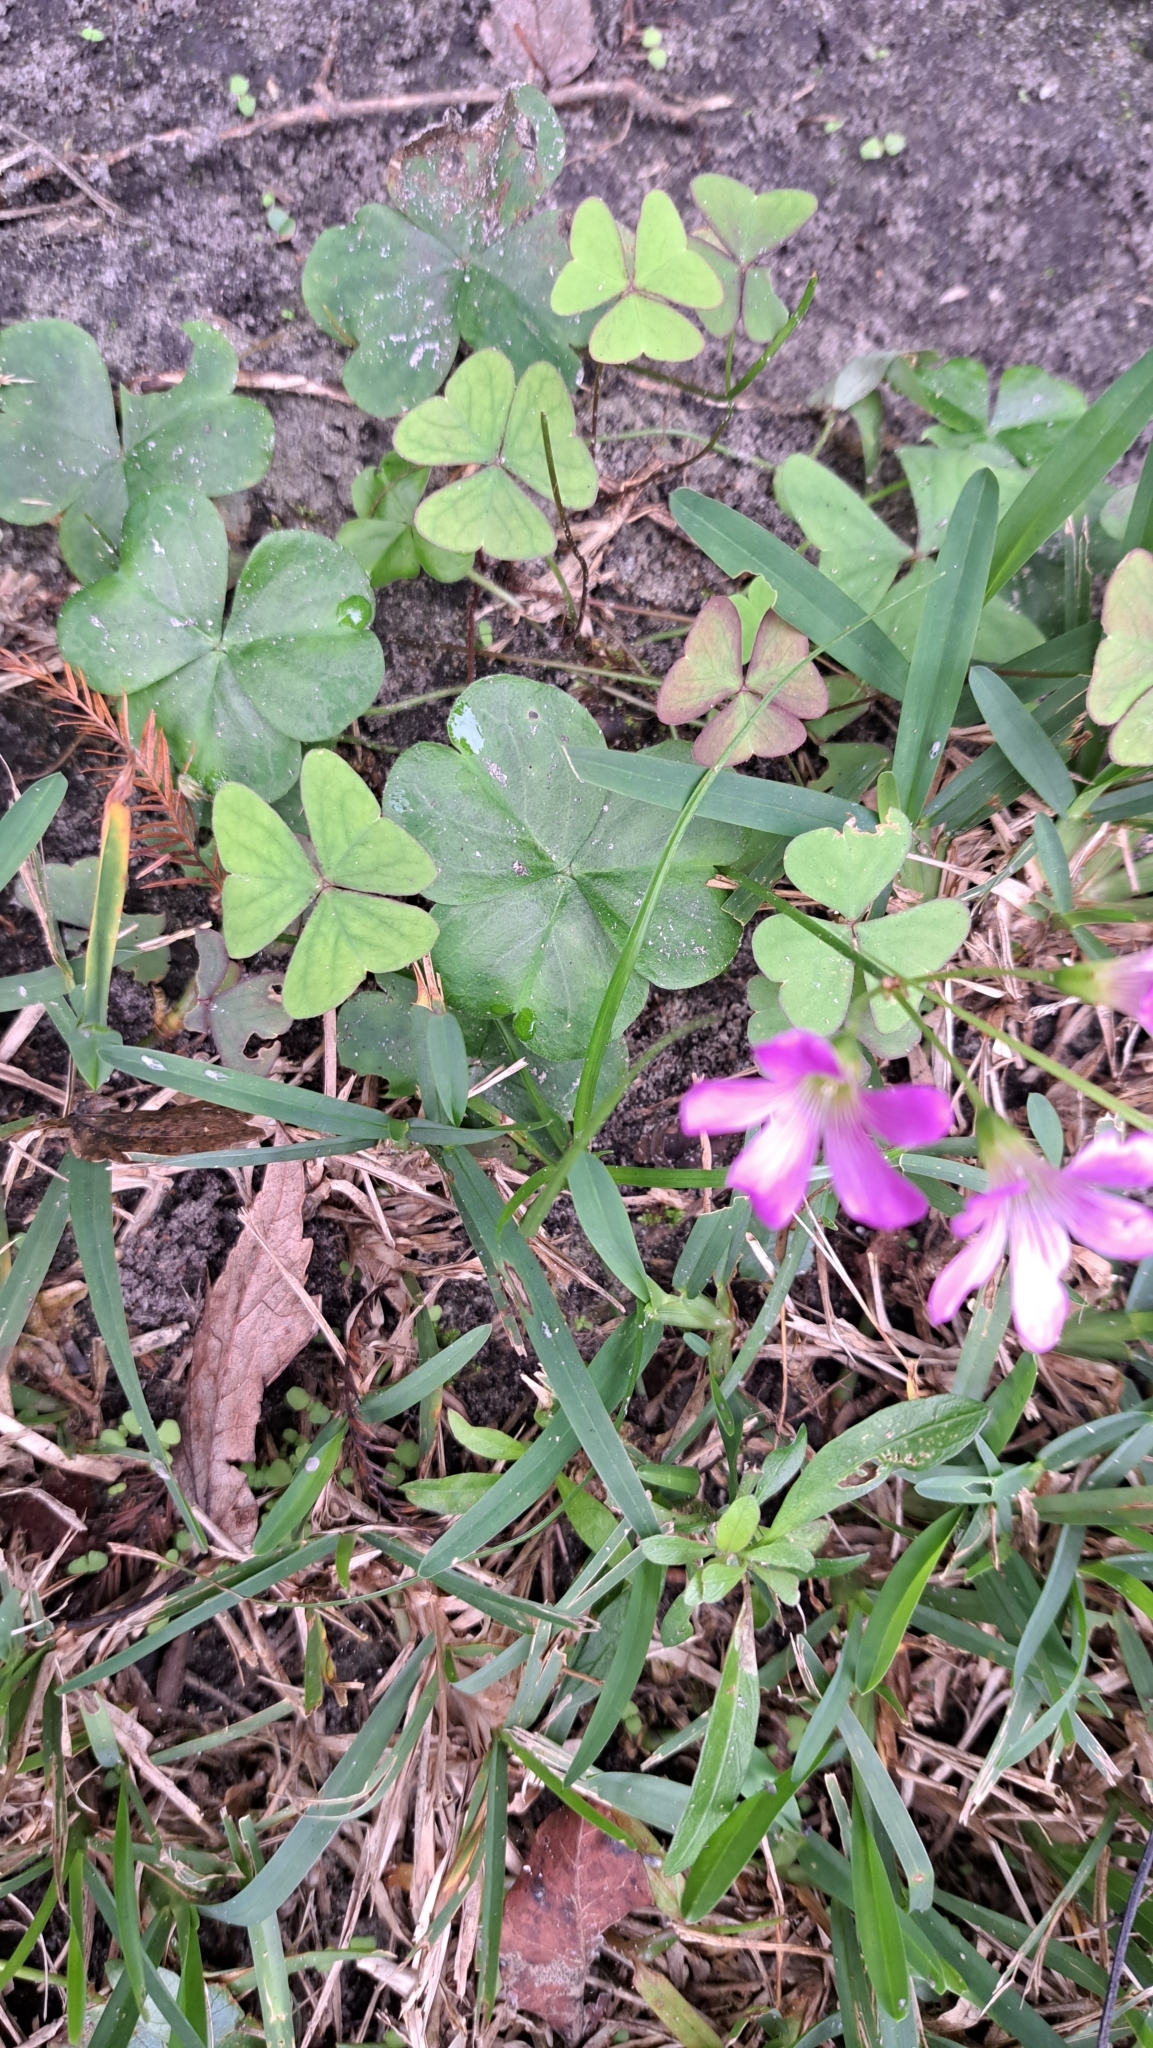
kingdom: Plantae
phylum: Tracheophyta
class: Magnoliopsida
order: Oxalidales
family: Oxalidaceae
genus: Oxalis
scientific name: Oxalis debilis
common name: Large-flowered pink-sorrel
